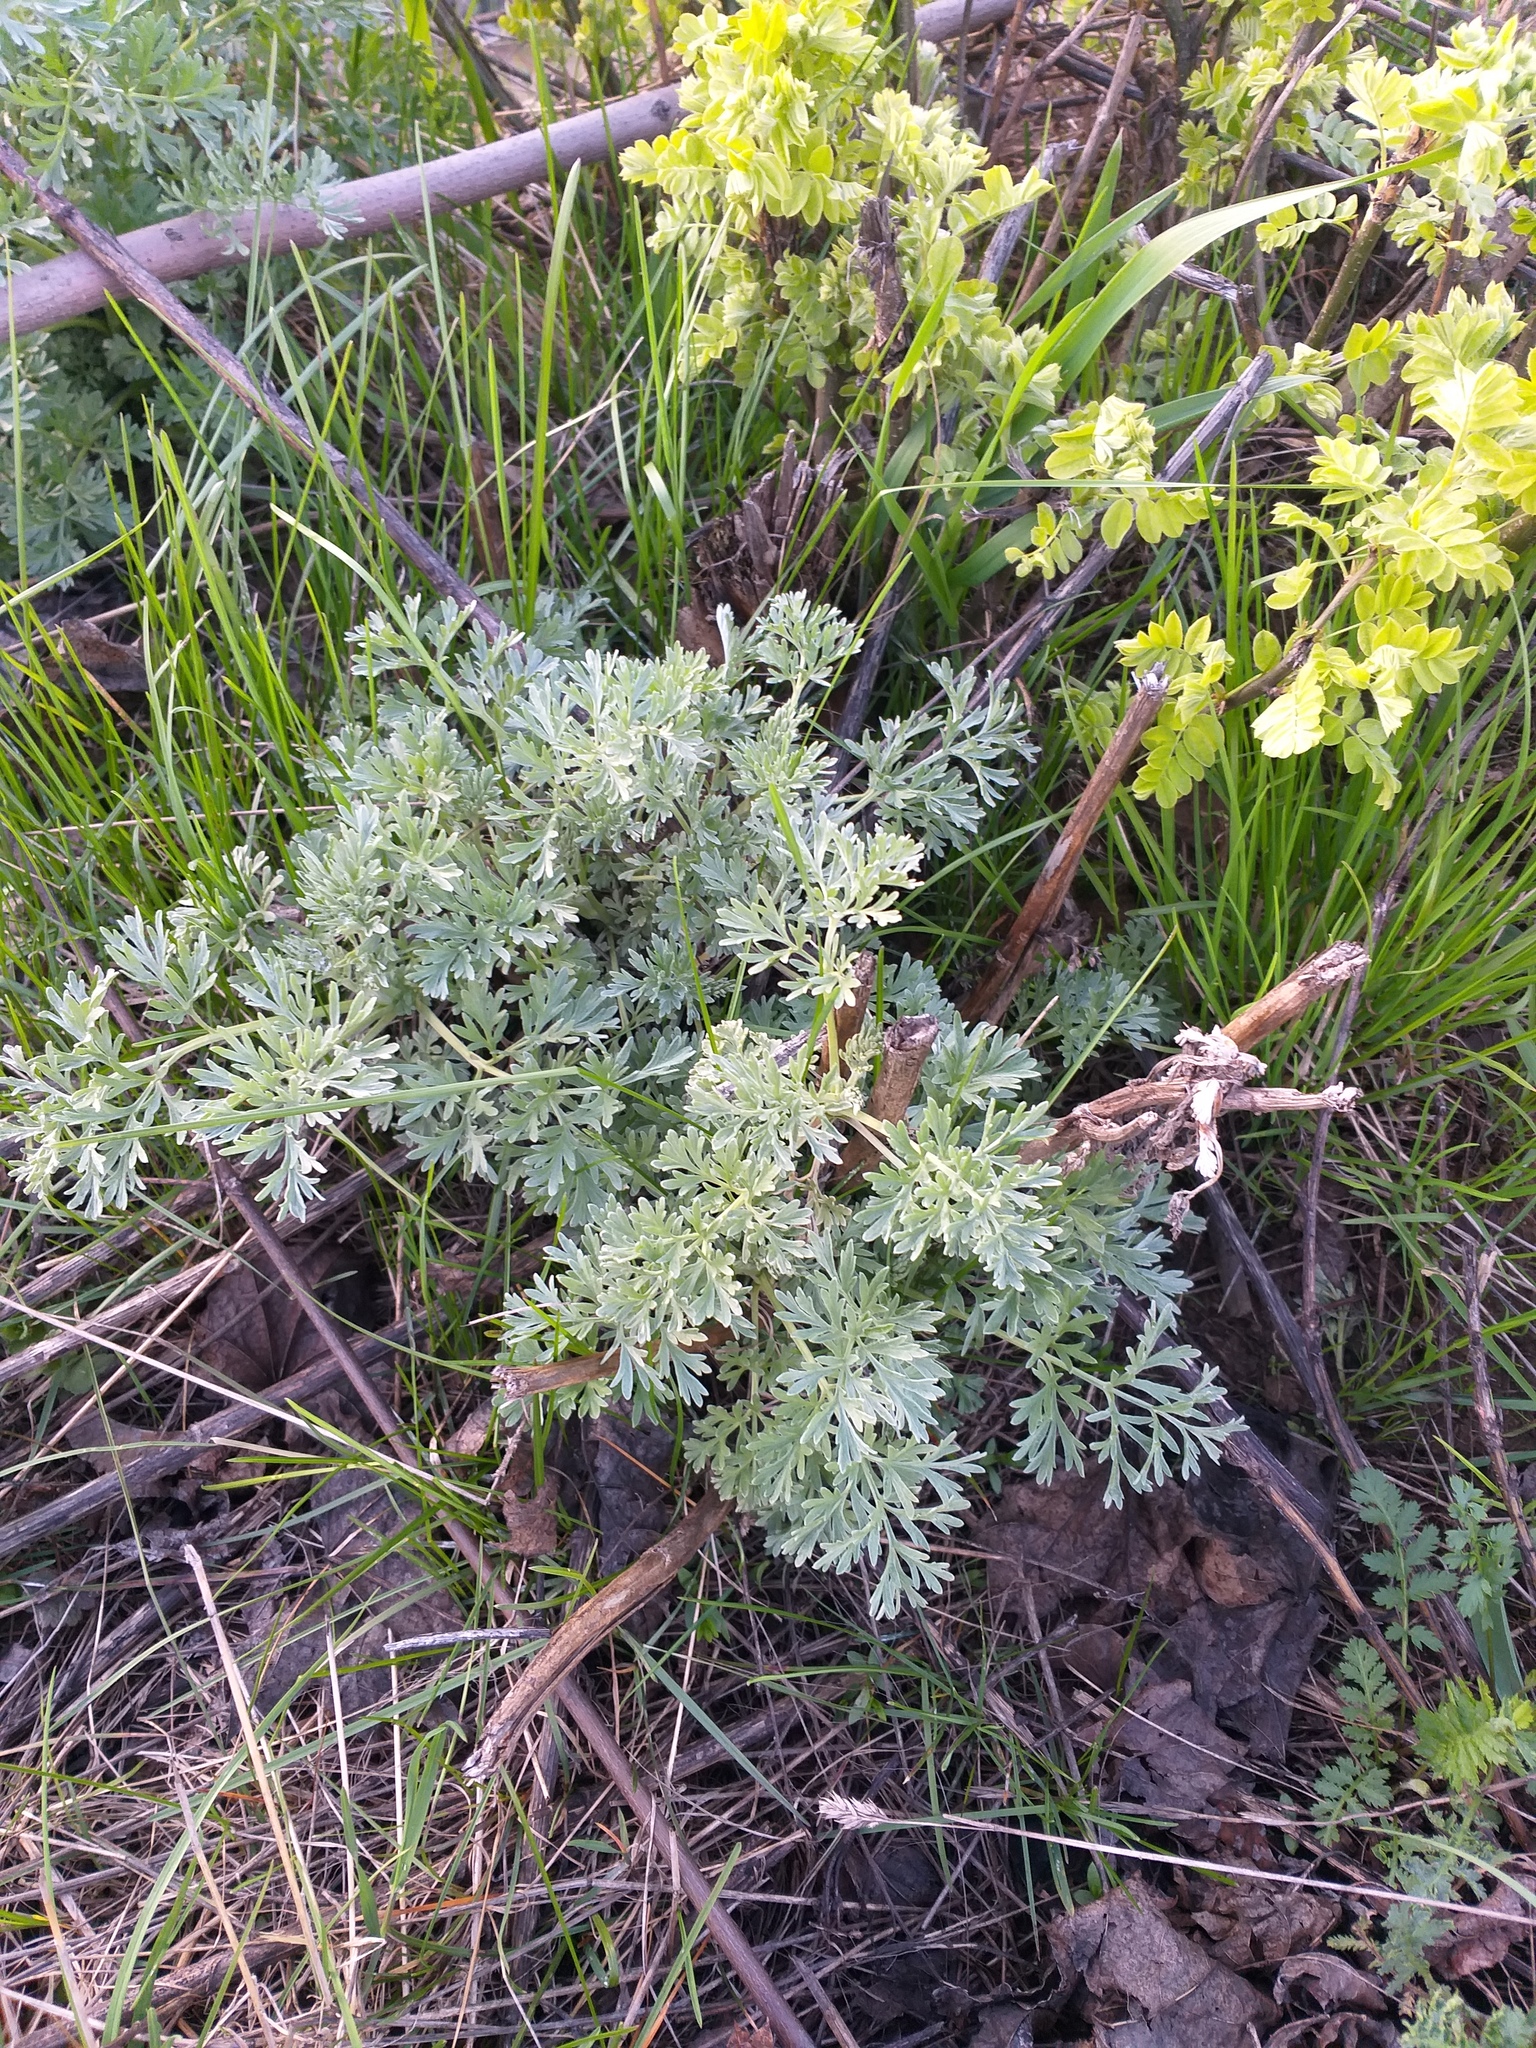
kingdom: Plantae
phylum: Tracheophyta
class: Magnoliopsida
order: Asterales
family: Asteraceae
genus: Artemisia
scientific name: Artemisia absinthium
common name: Wormwood
